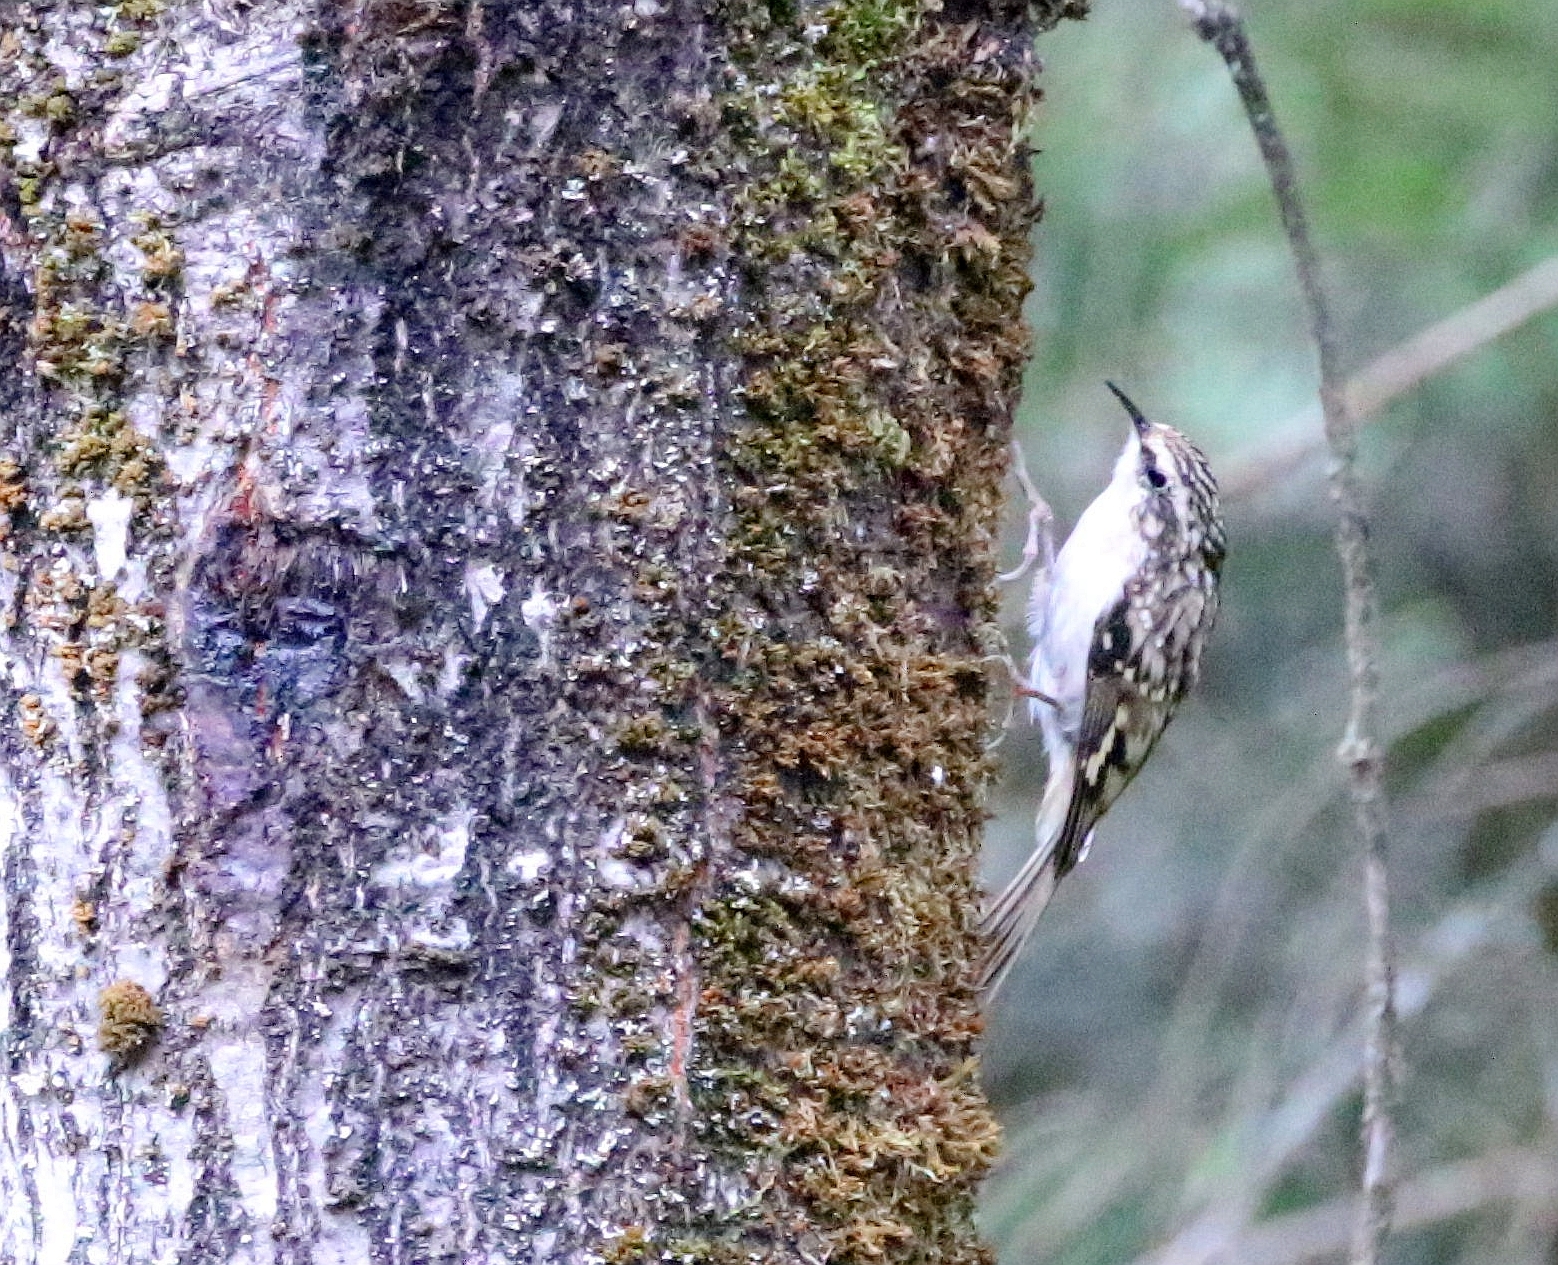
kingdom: Animalia
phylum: Chordata
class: Aves
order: Passeriformes
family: Certhiidae
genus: Certhia
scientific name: Certhia americana
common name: Brown creeper
